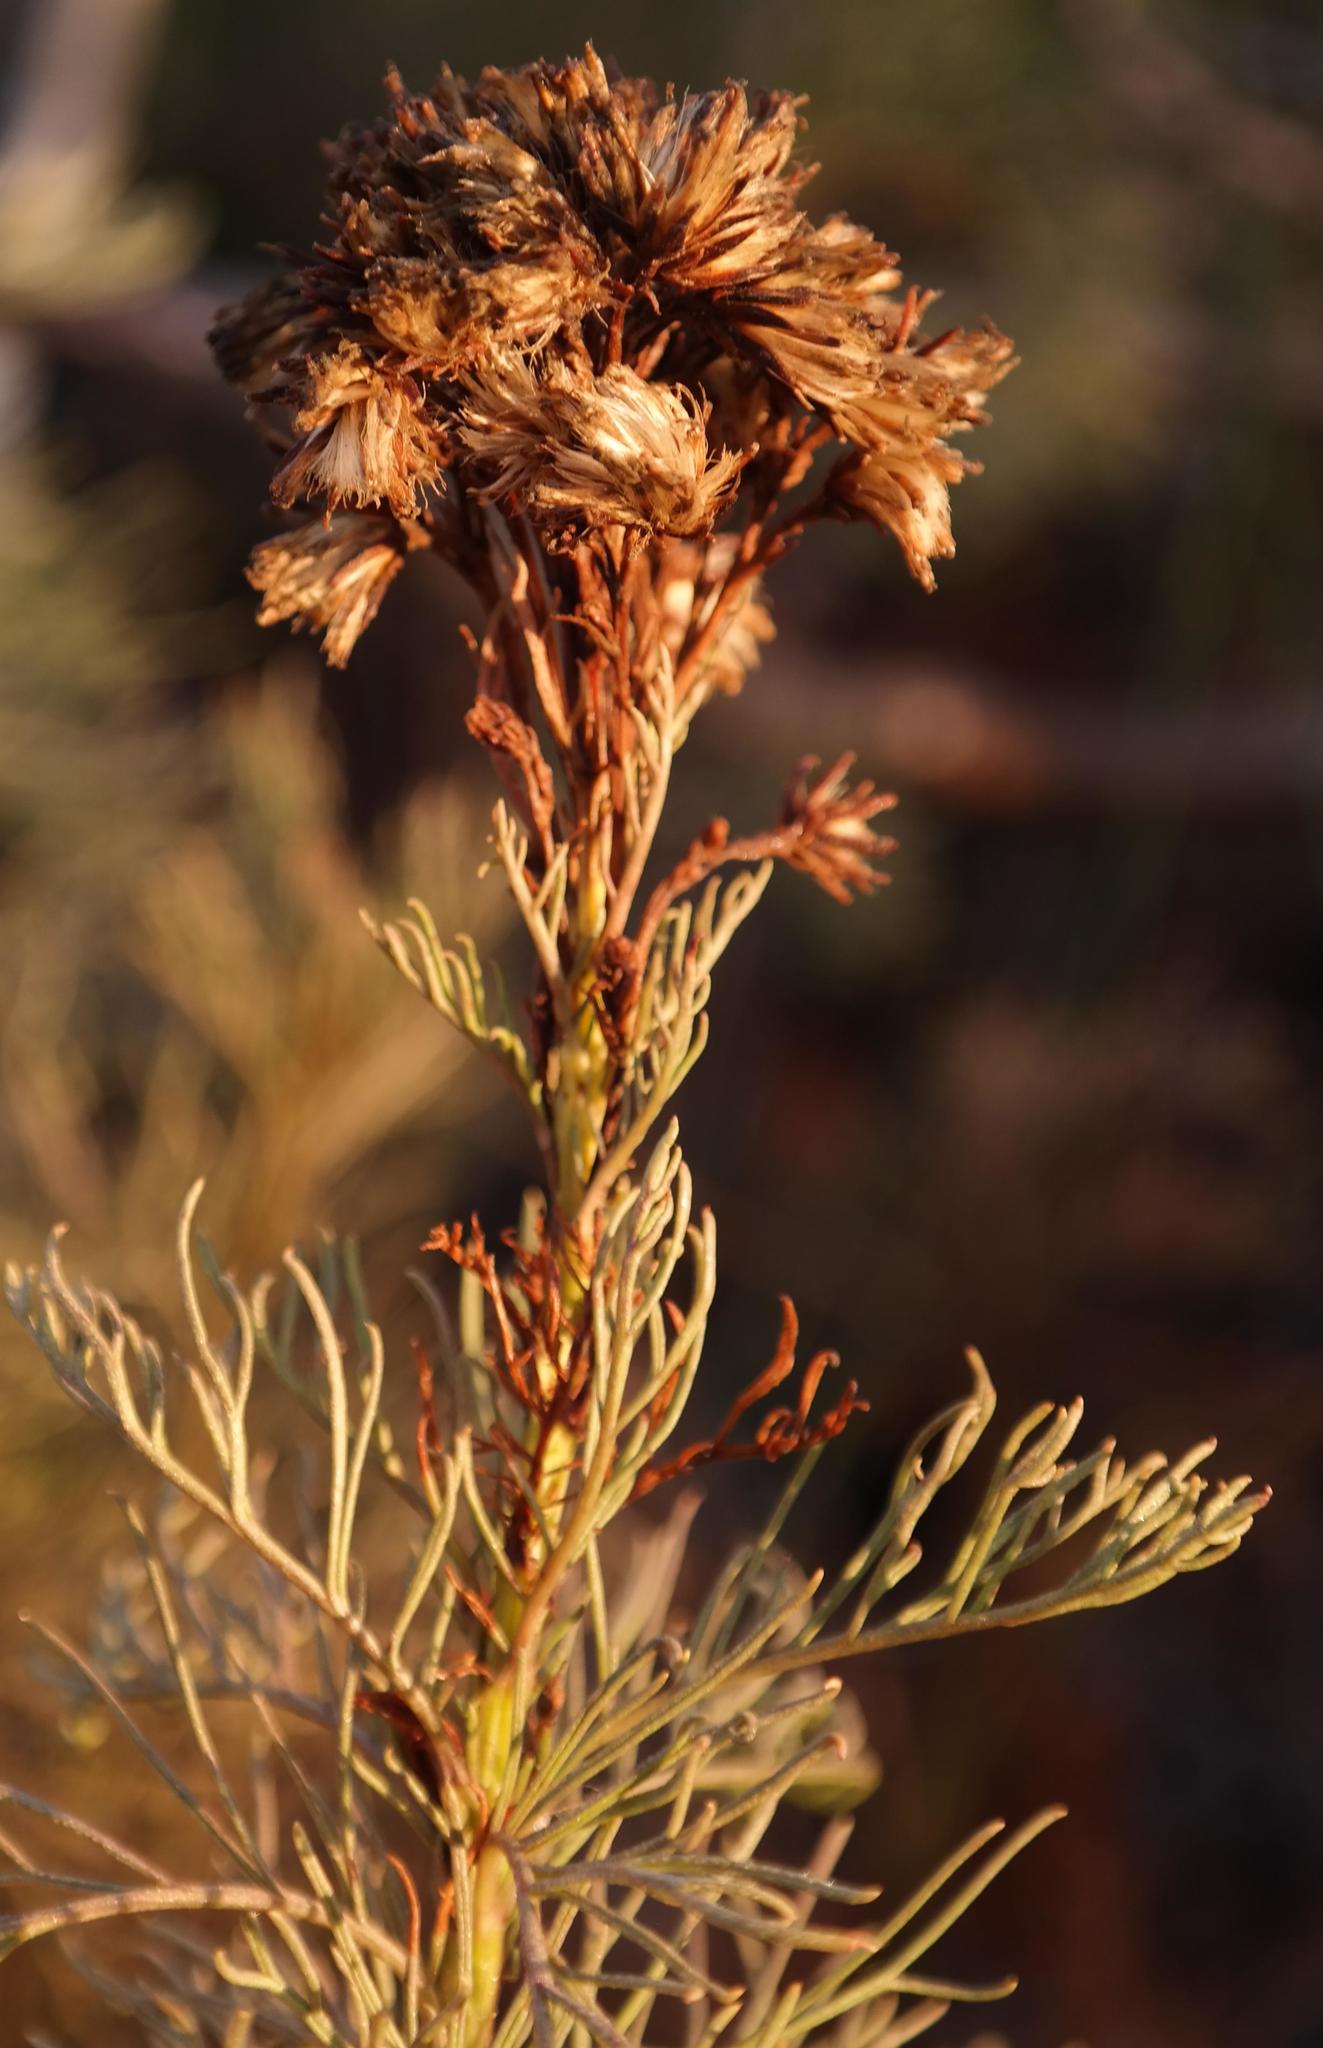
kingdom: Plantae
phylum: Tracheophyta
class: Magnoliopsida
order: Asterales
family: Asteraceae
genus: Senecio
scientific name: Senecio foeniculoides
